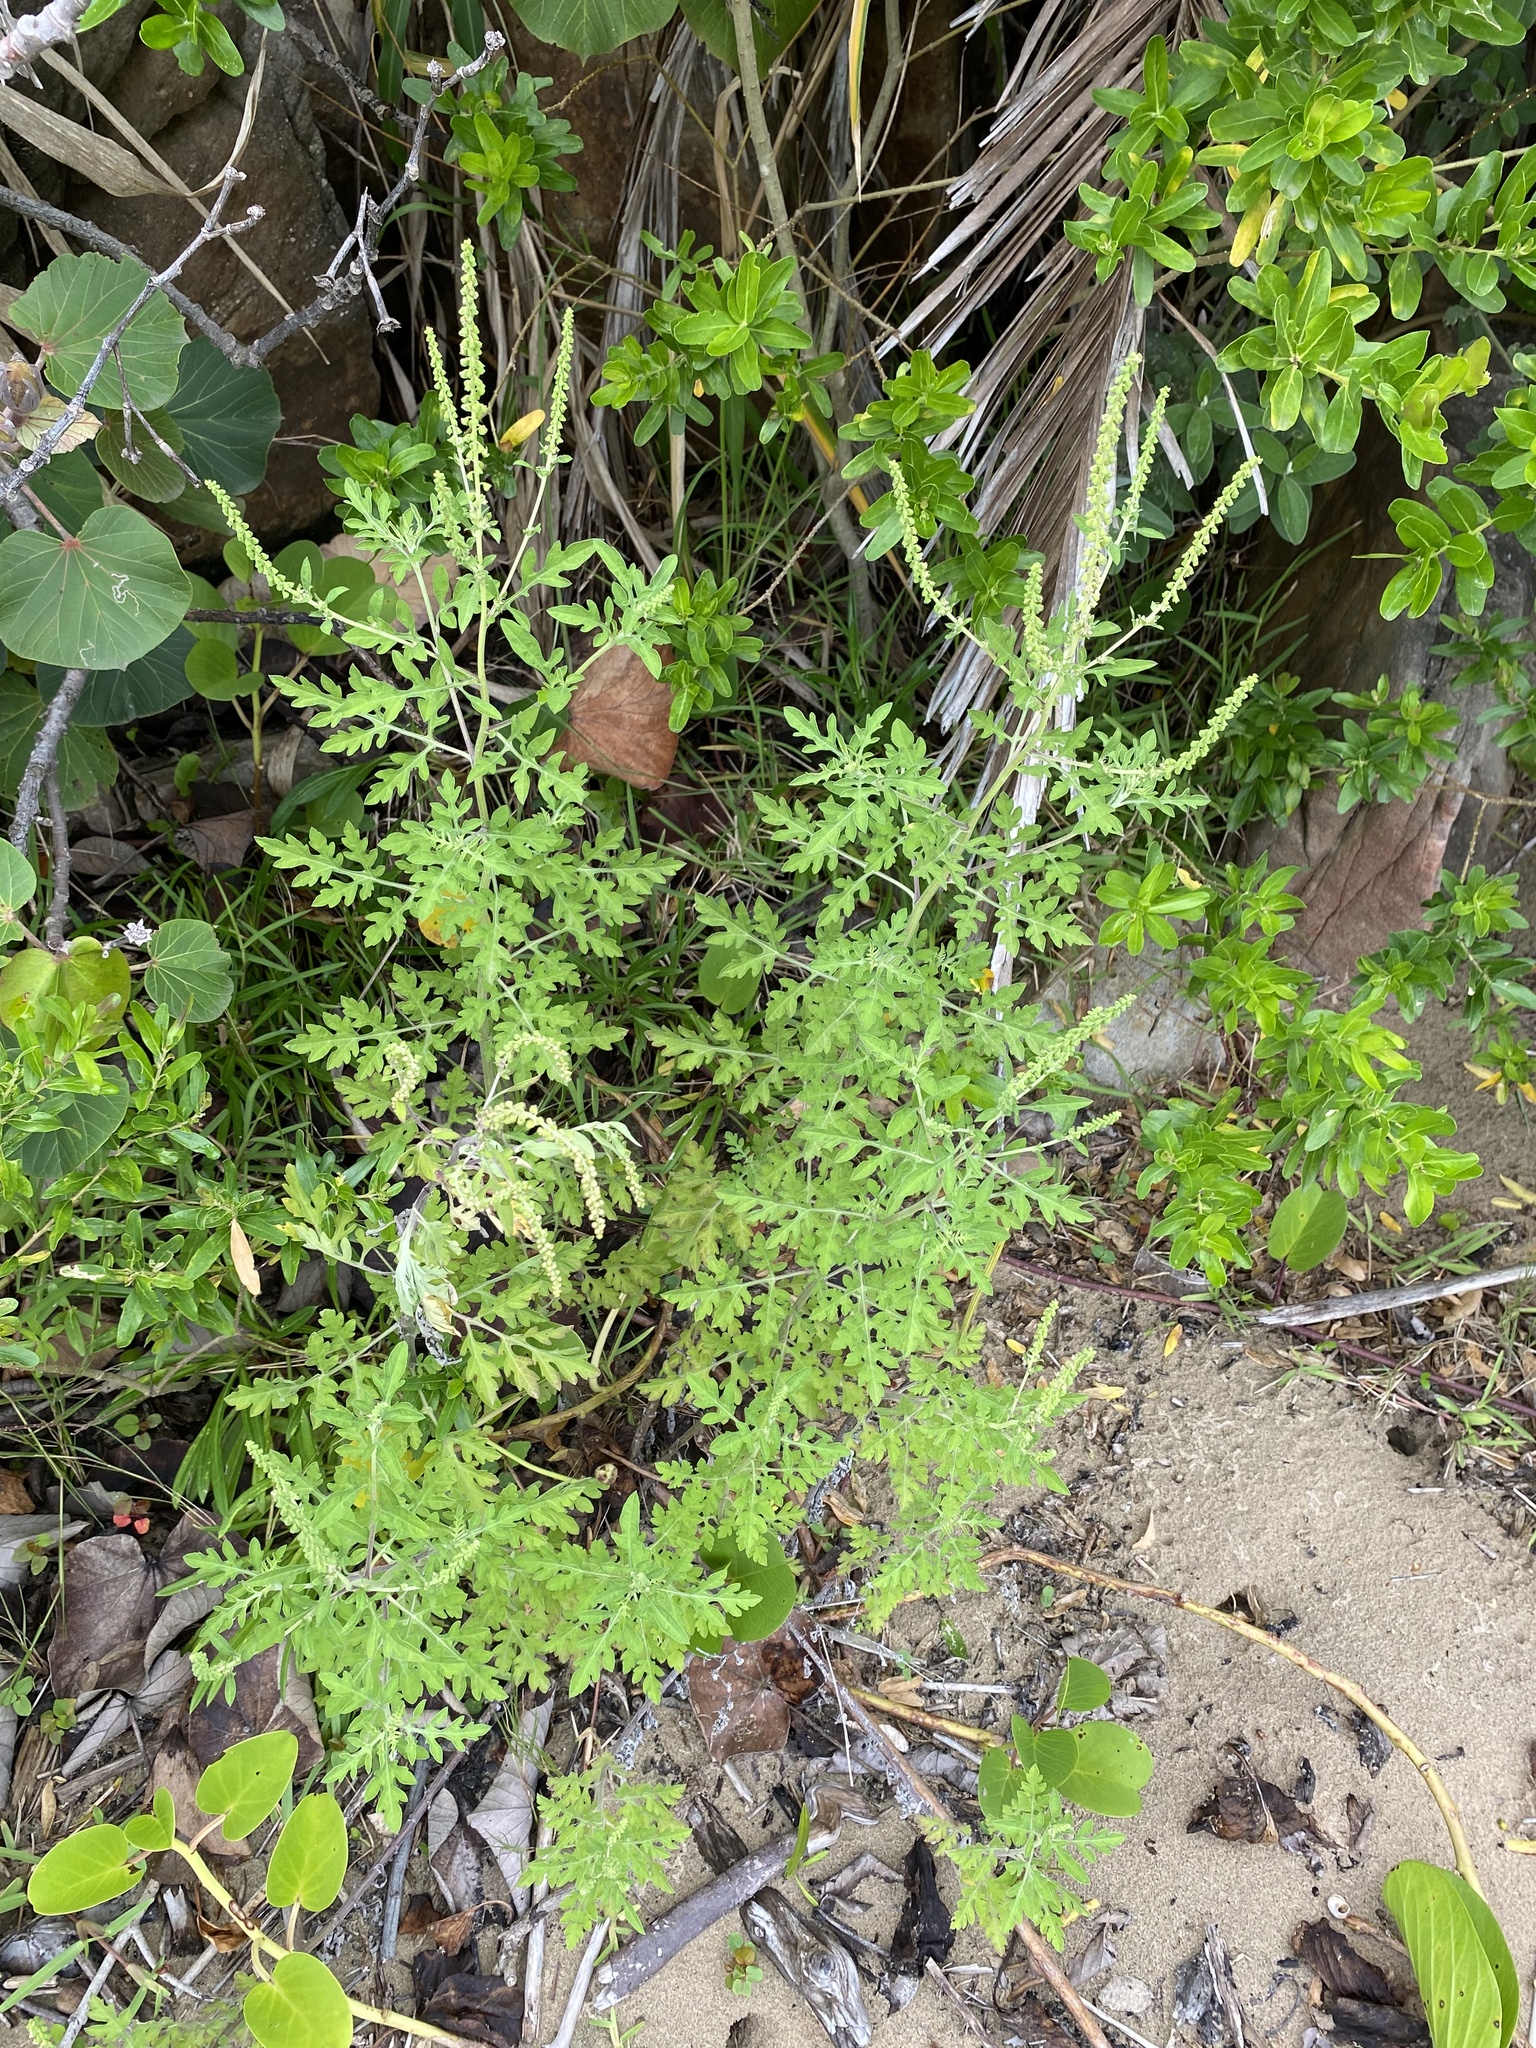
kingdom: Plantae
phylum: Tracheophyta
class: Magnoliopsida
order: Asterales
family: Asteraceae
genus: Ambrosia
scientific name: Ambrosia artemisiifolia
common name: Annual ragweed
